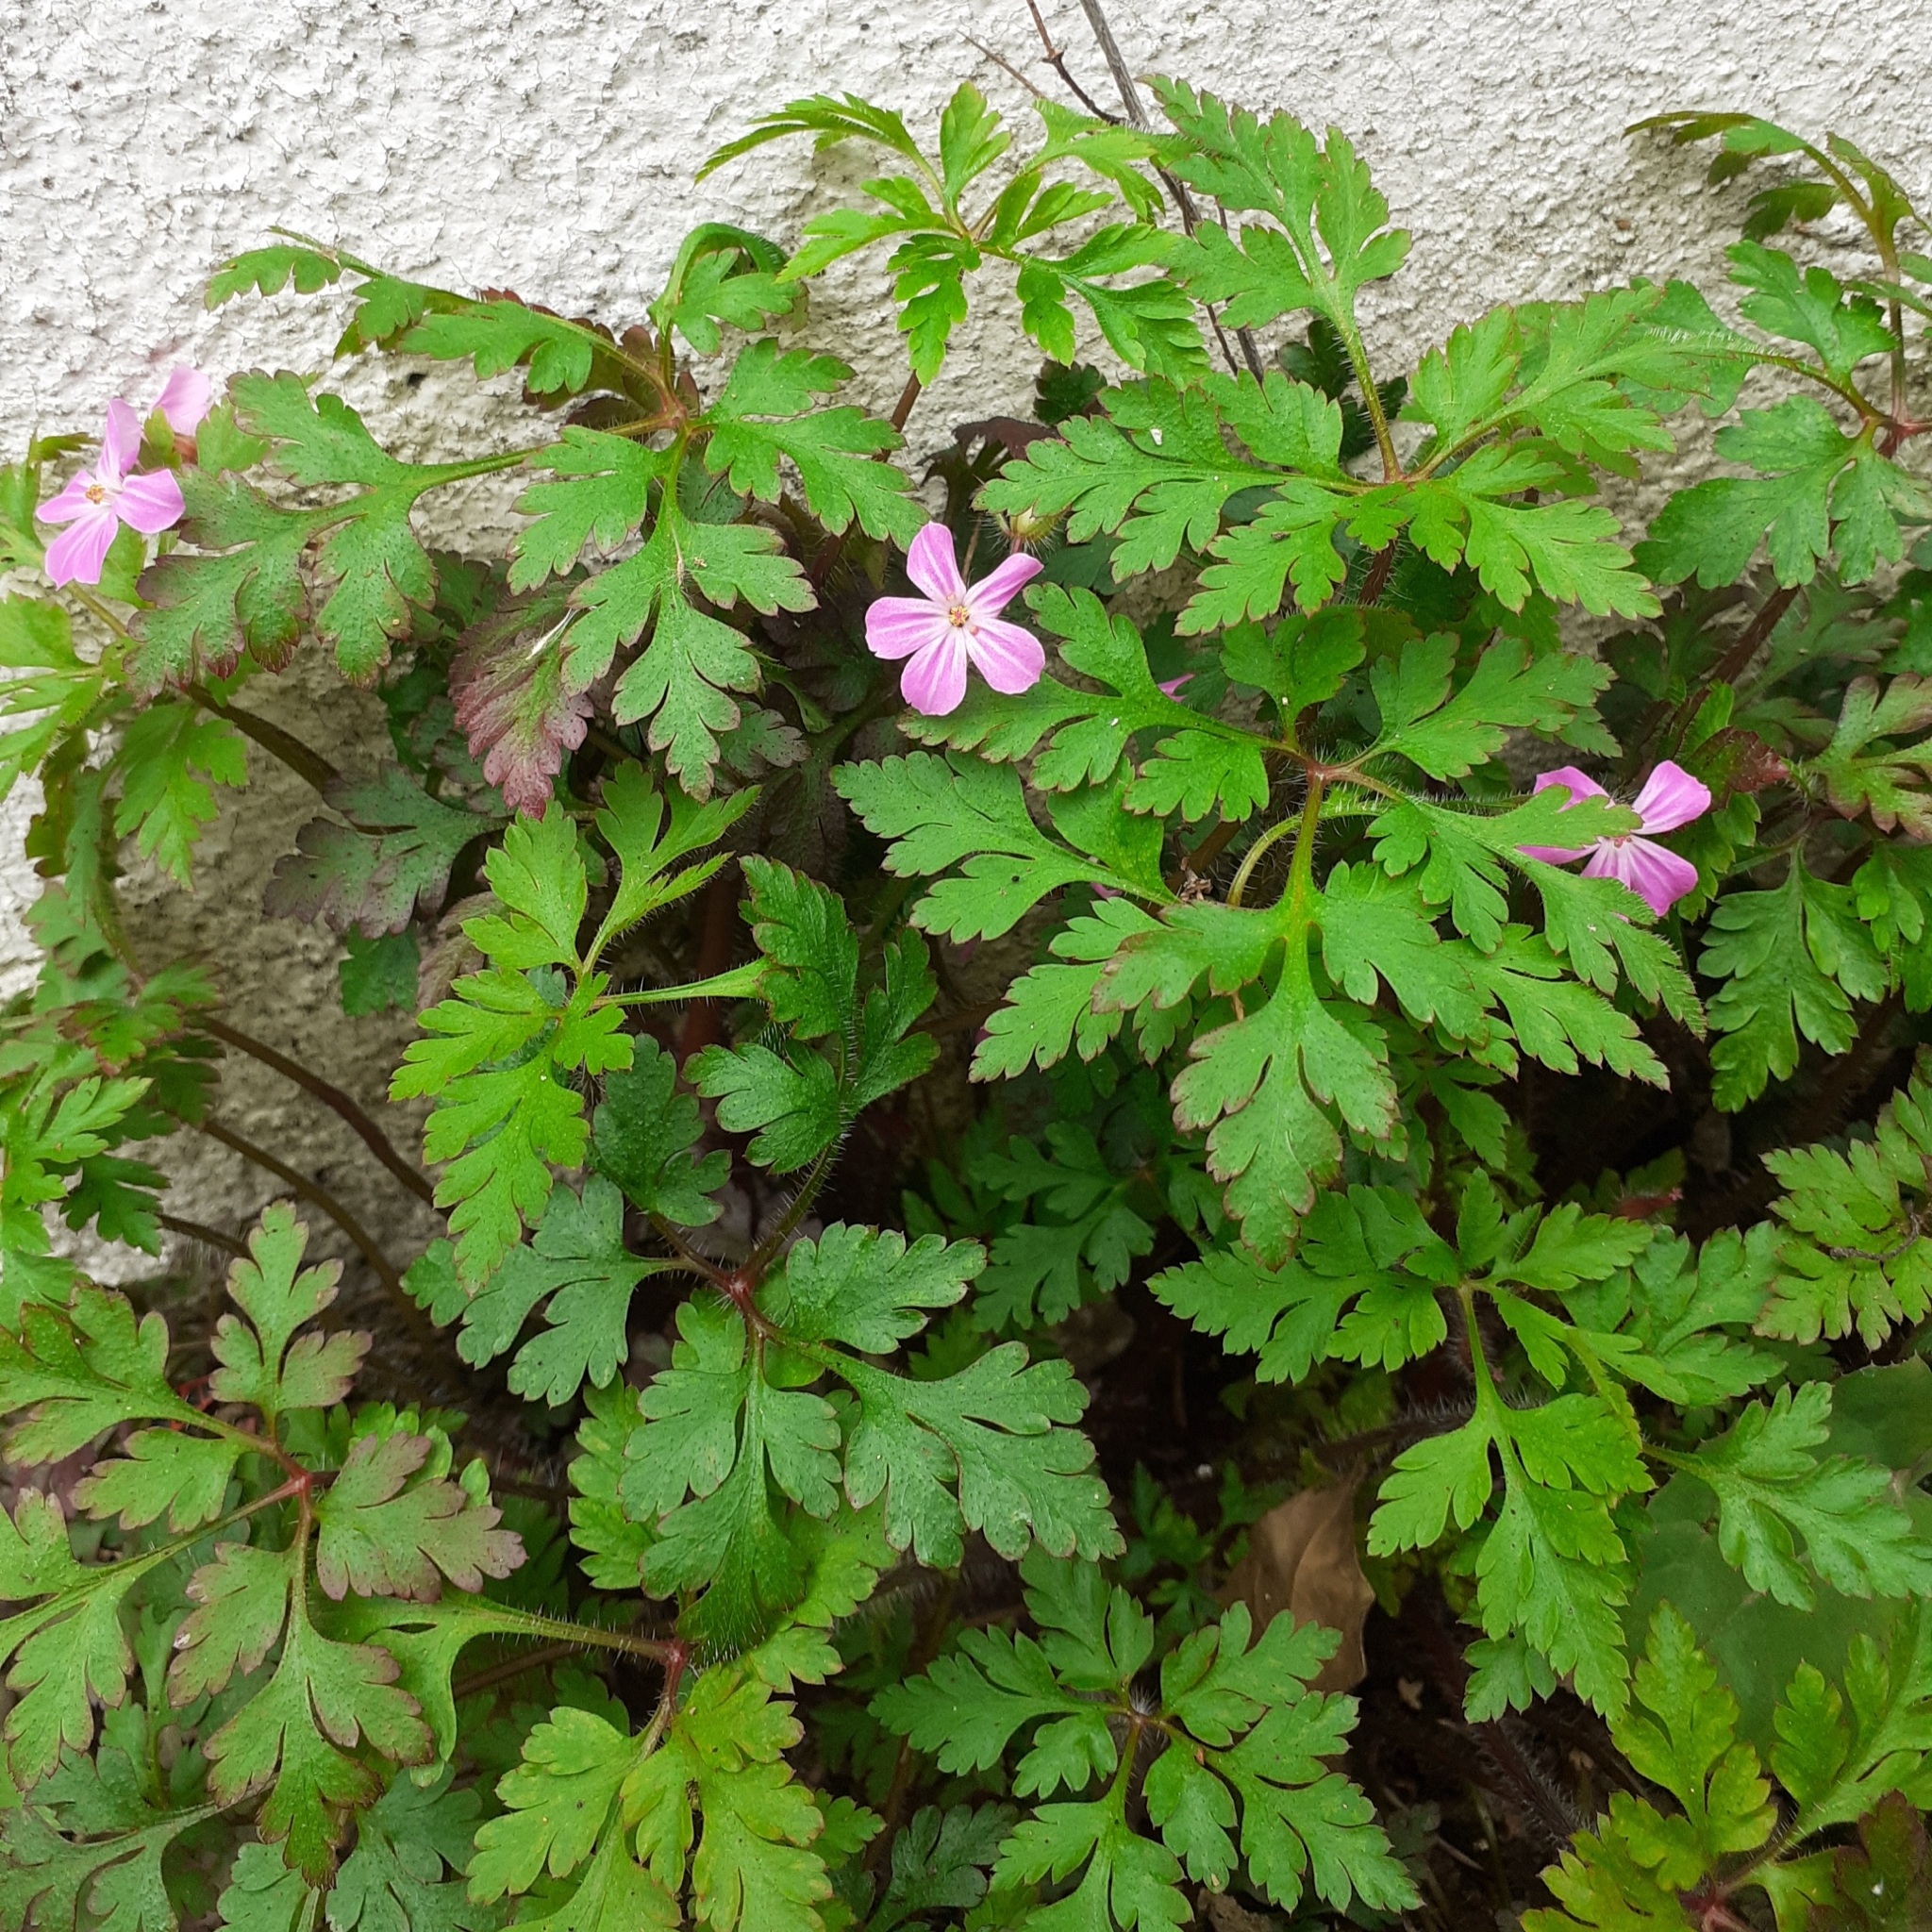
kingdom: Plantae
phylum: Tracheophyta
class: Magnoliopsida
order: Geraniales
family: Geraniaceae
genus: Geranium
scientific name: Geranium robertianum
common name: Herb-robert
